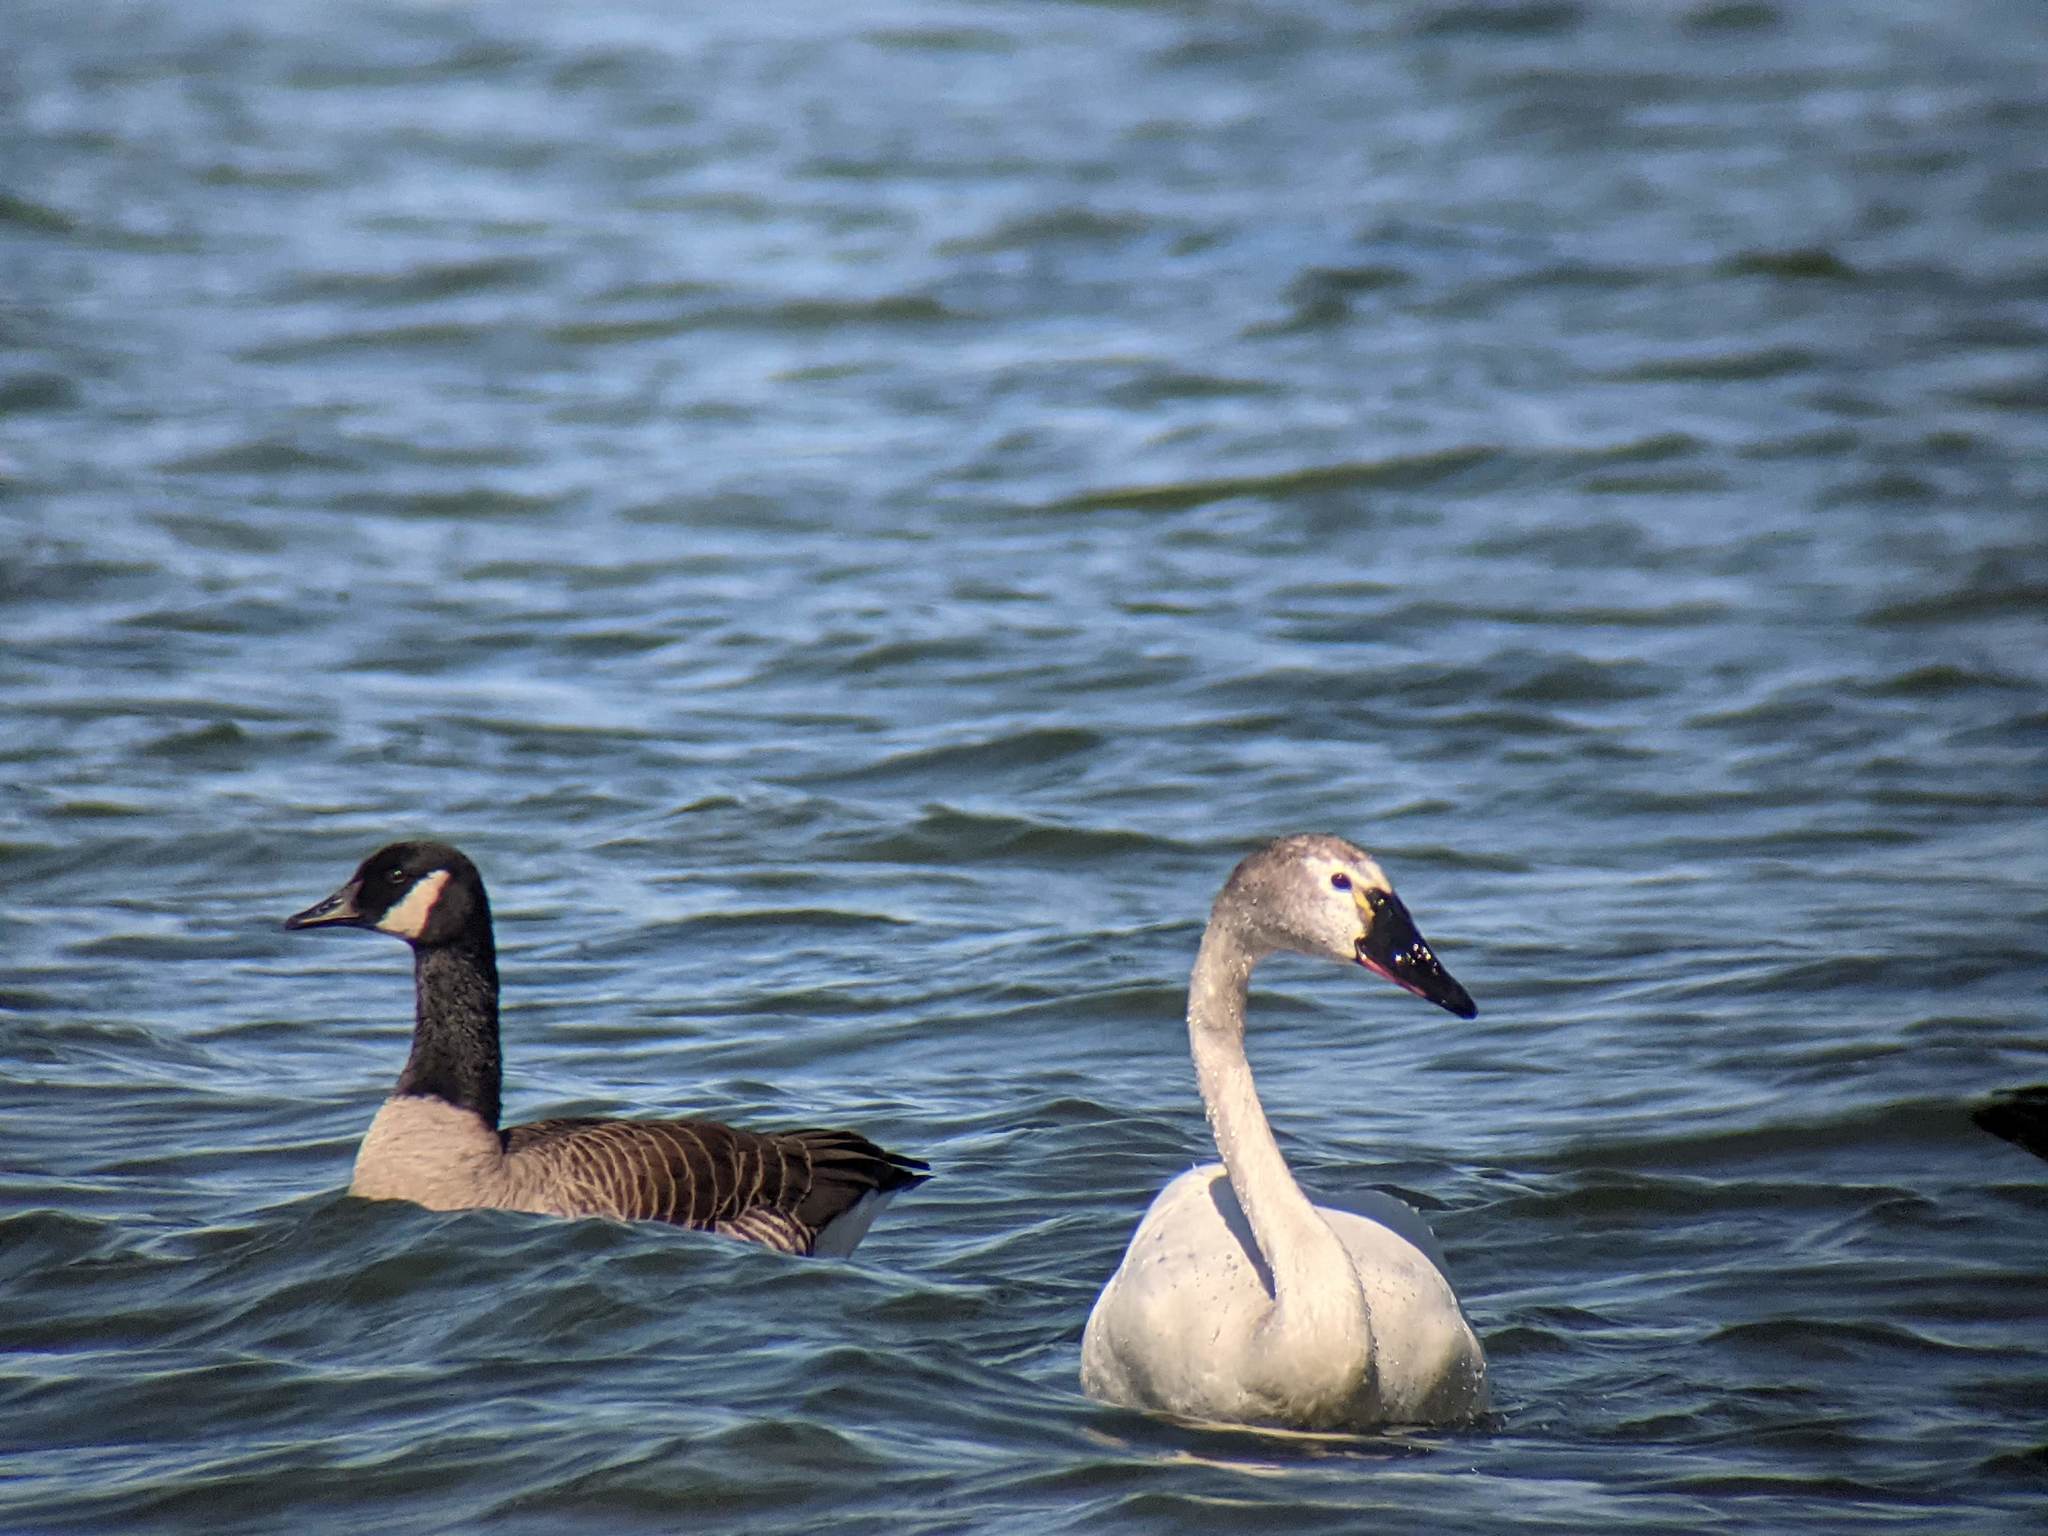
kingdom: Animalia
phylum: Chordata
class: Aves
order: Anseriformes
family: Anatidae
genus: Cygnus
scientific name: Cygnus columbianus
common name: Tundra swan
